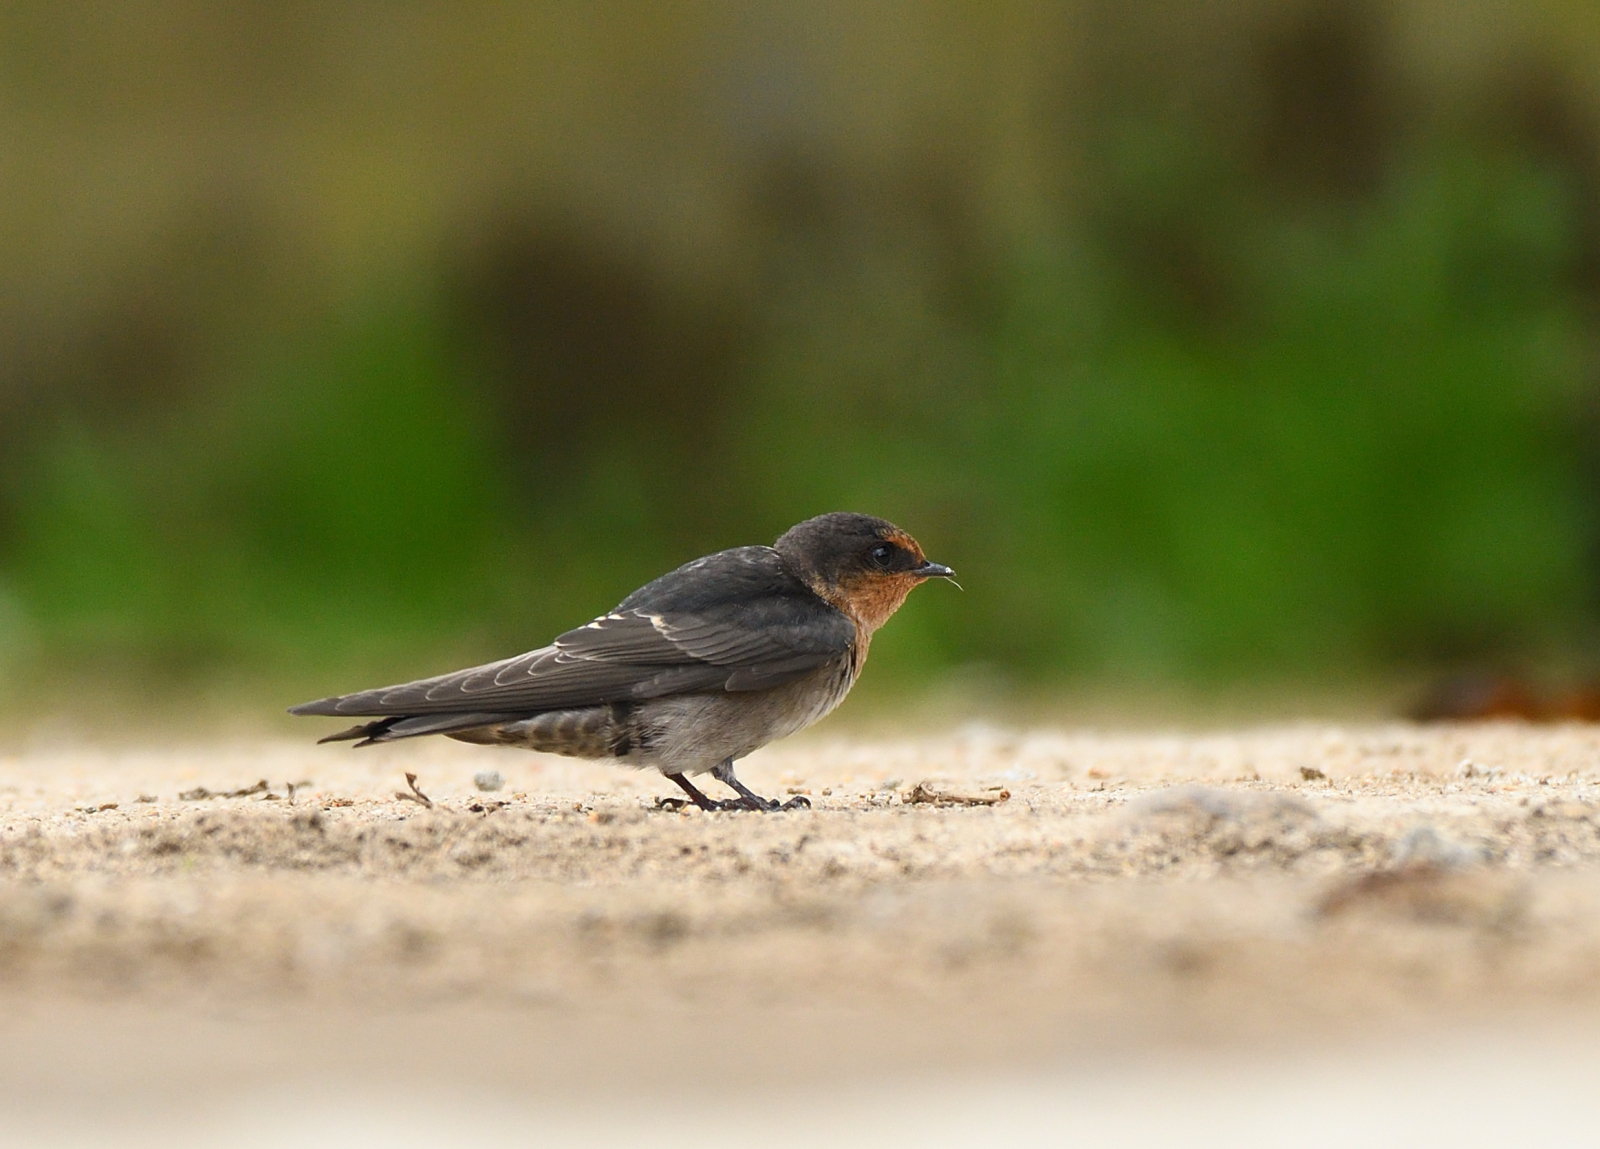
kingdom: Animalia
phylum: Chordata
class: Aves
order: Passeriformes
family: Hirundinidae
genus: Hirundo
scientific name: Hirundo domicola
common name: Hill swallow
